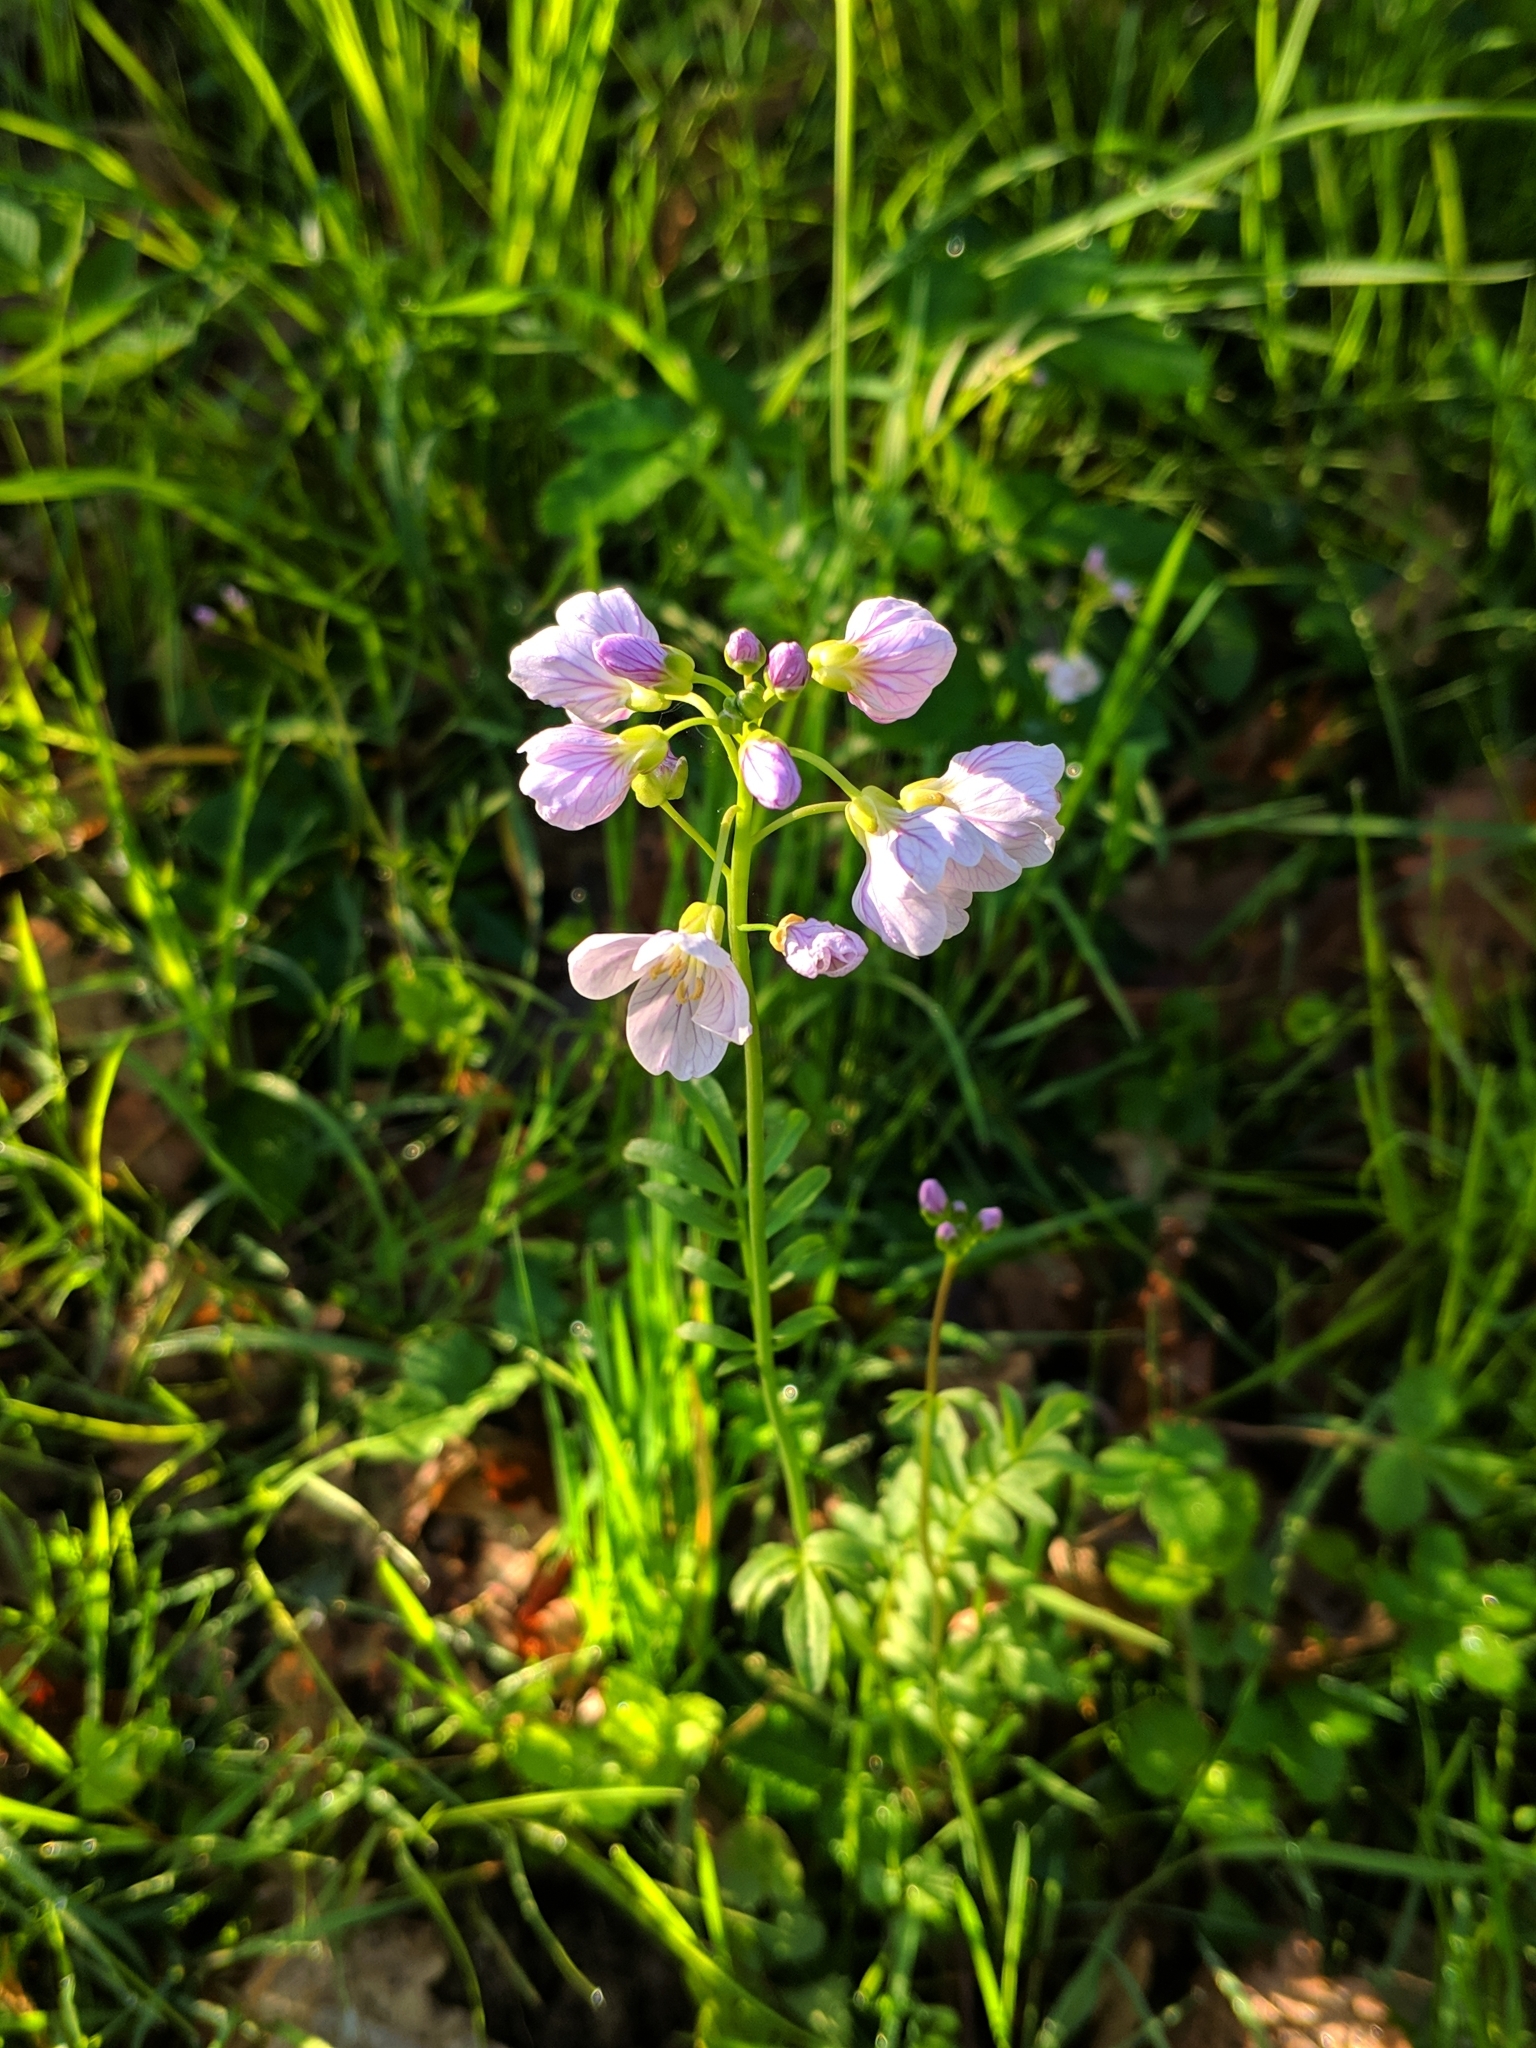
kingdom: Plantae
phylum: Tracheophyta
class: Magnoliopsida
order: Brassicales
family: Brassicaceae
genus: Cardamine
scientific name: Cardamine pratensis
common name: Cuckoo flower
